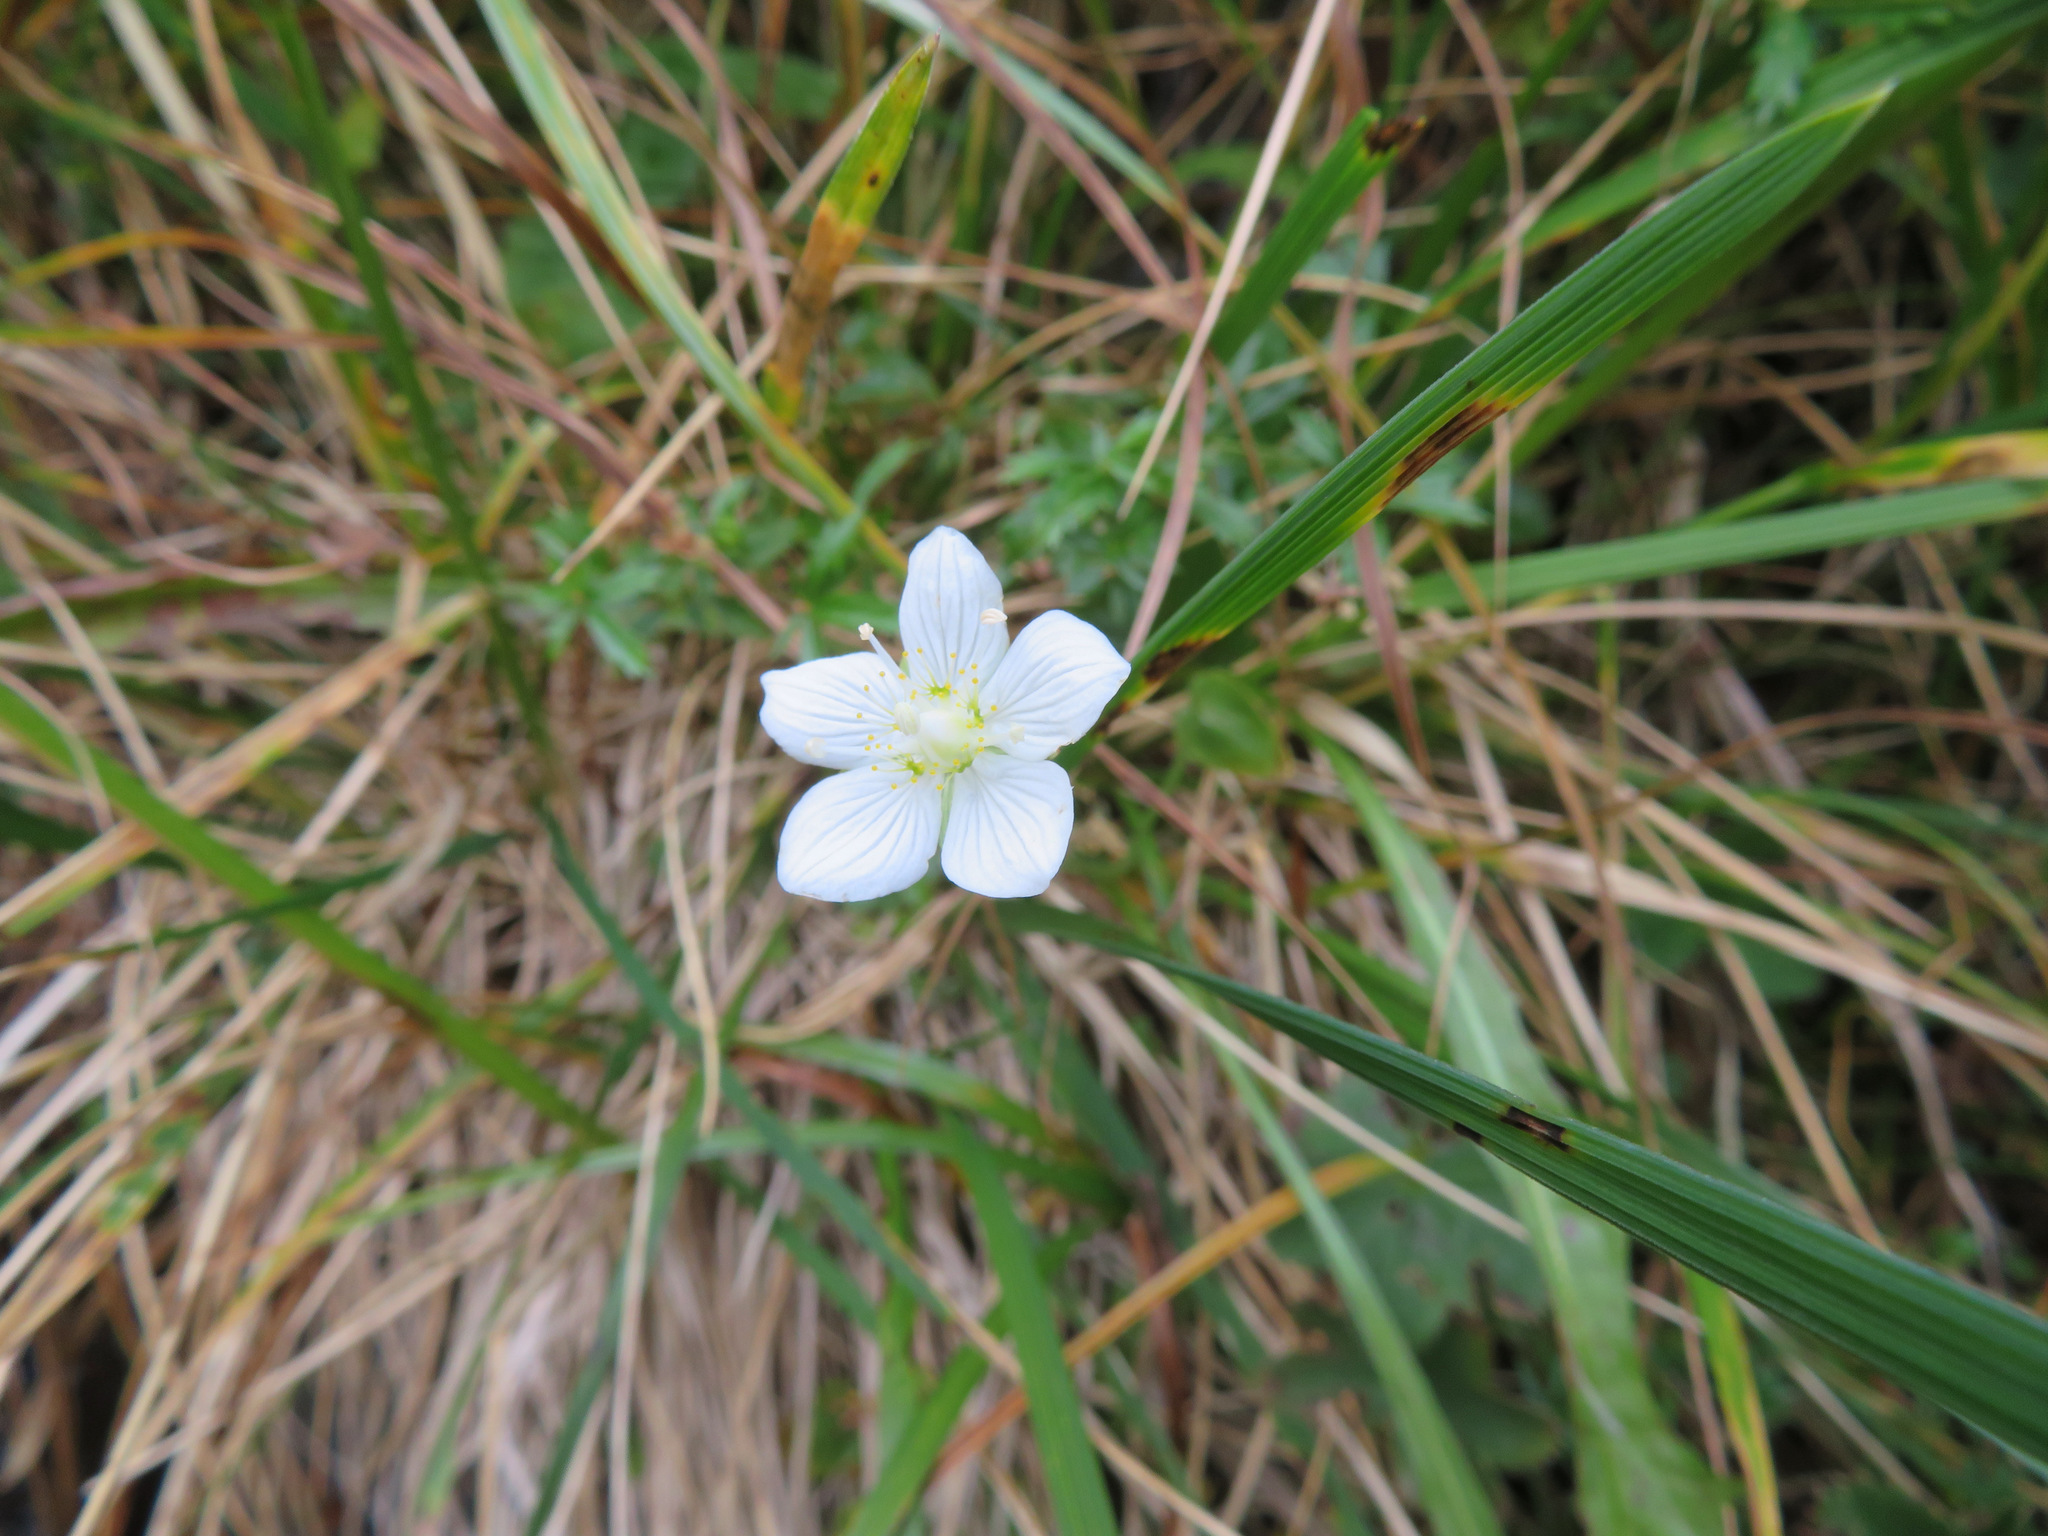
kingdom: Plantae
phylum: Tracheophyta
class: Magnoliopsida
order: Celastrales
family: Parnassiaceae
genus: Parnassia
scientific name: Parnassia palustris
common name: Grass-of-parnassus
